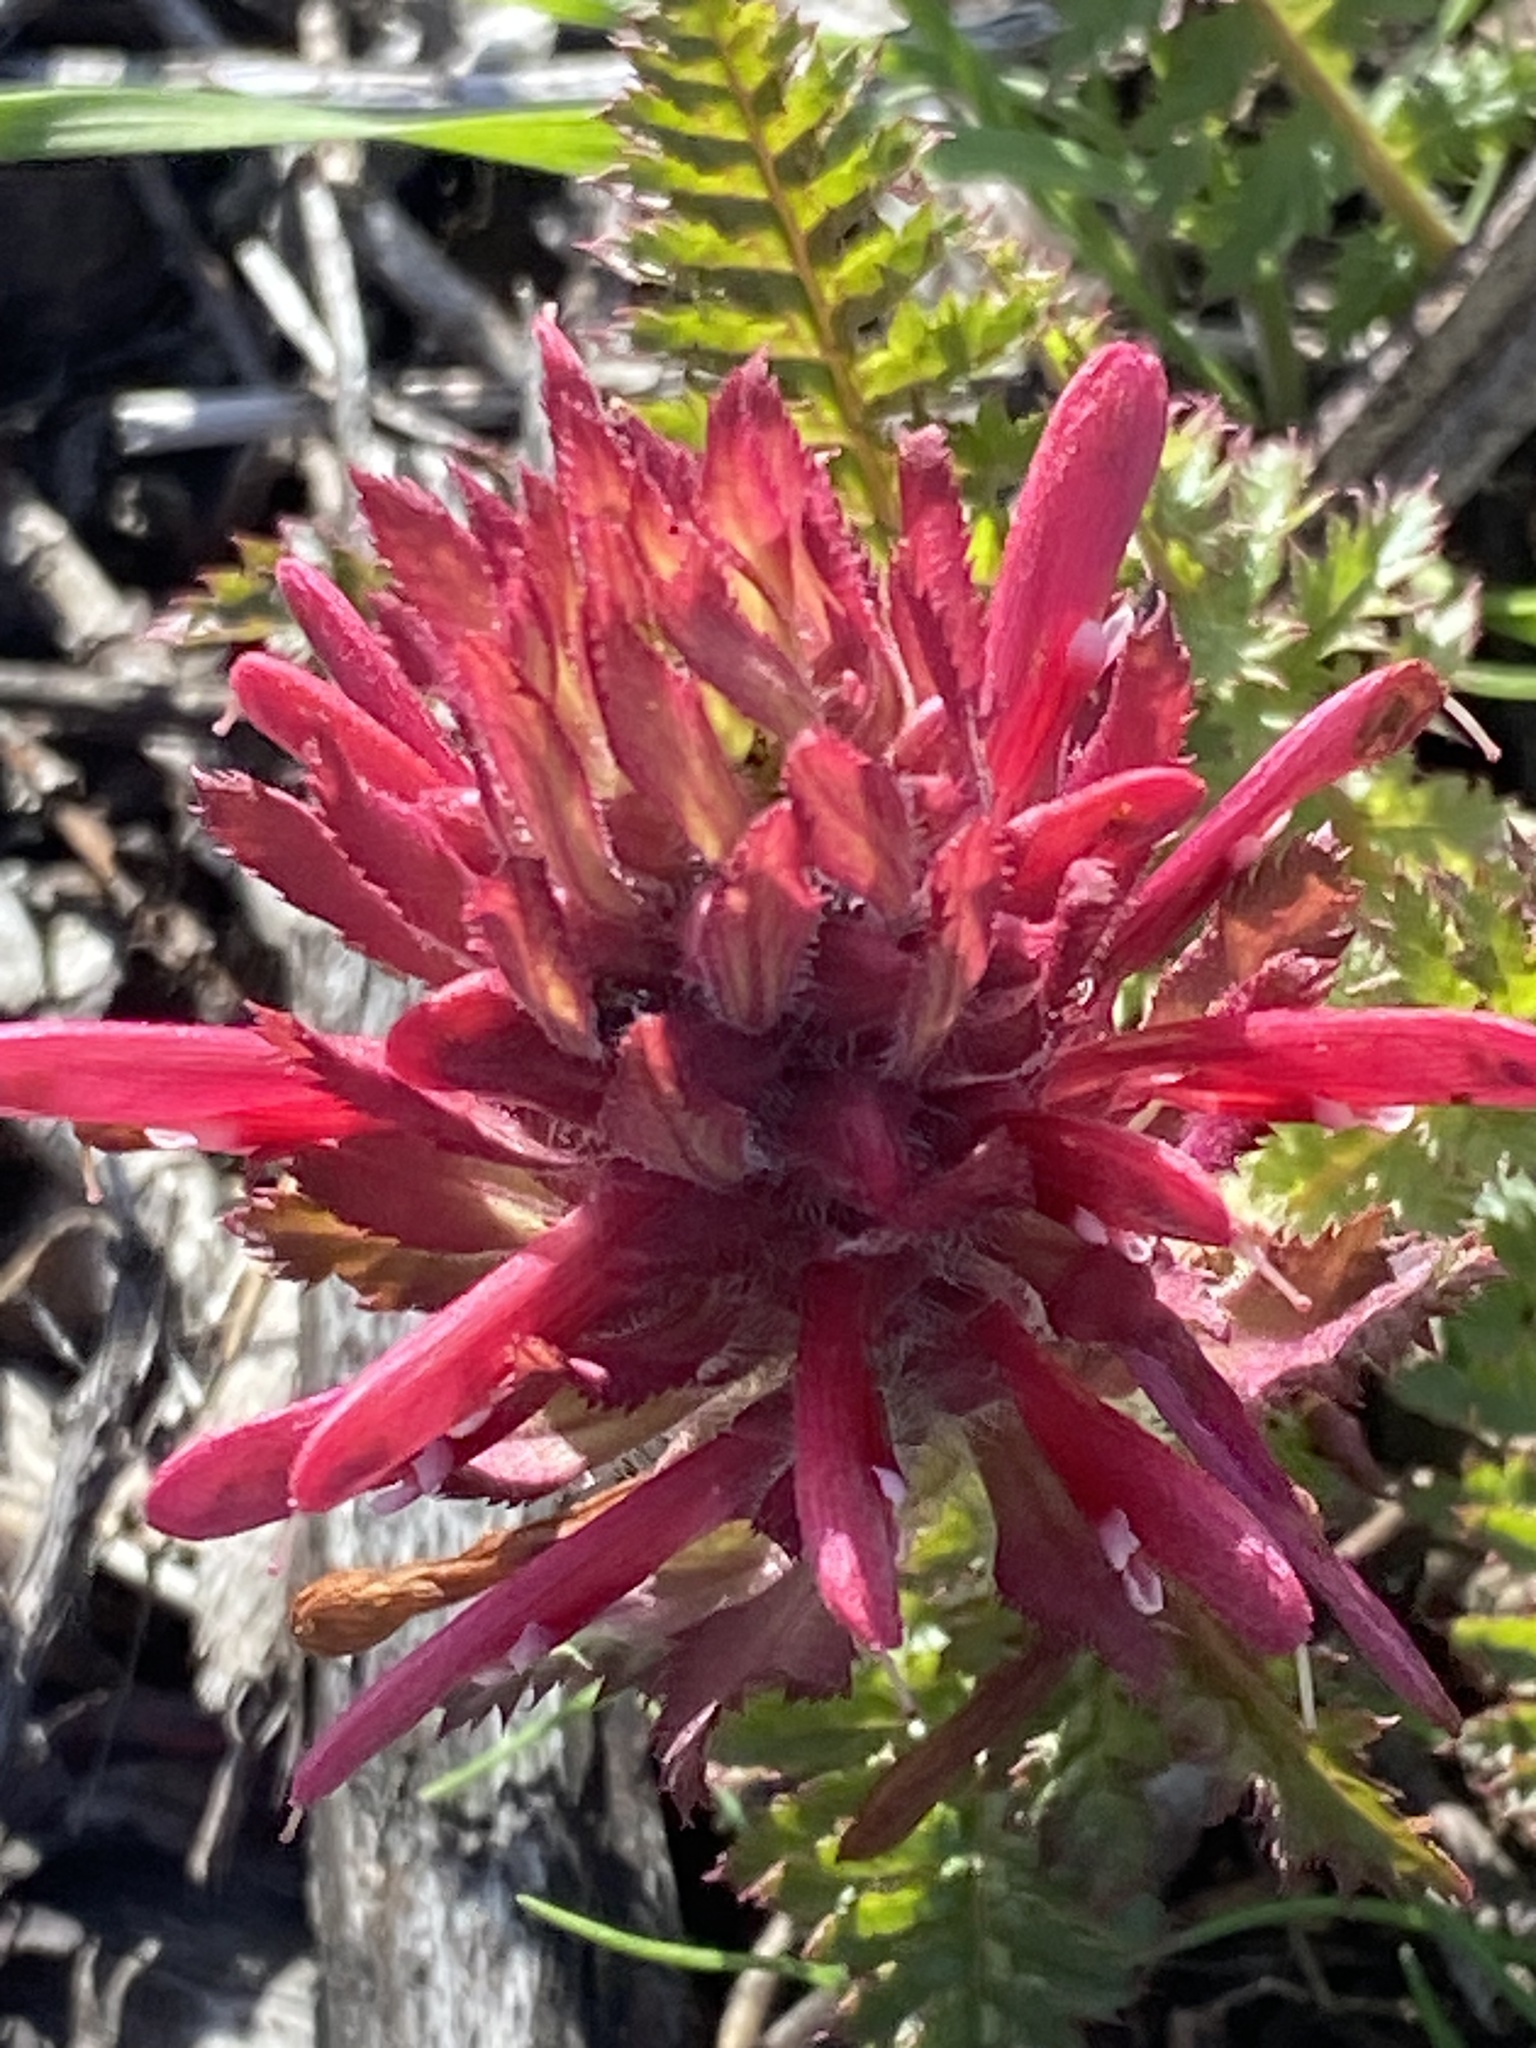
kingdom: Plantae
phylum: Tracheophyta
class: Magnoliopsida
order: Lamiales
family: Orobanchaceae
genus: Pedicularis
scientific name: Pedicularis densiflora
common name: Indian warrior
